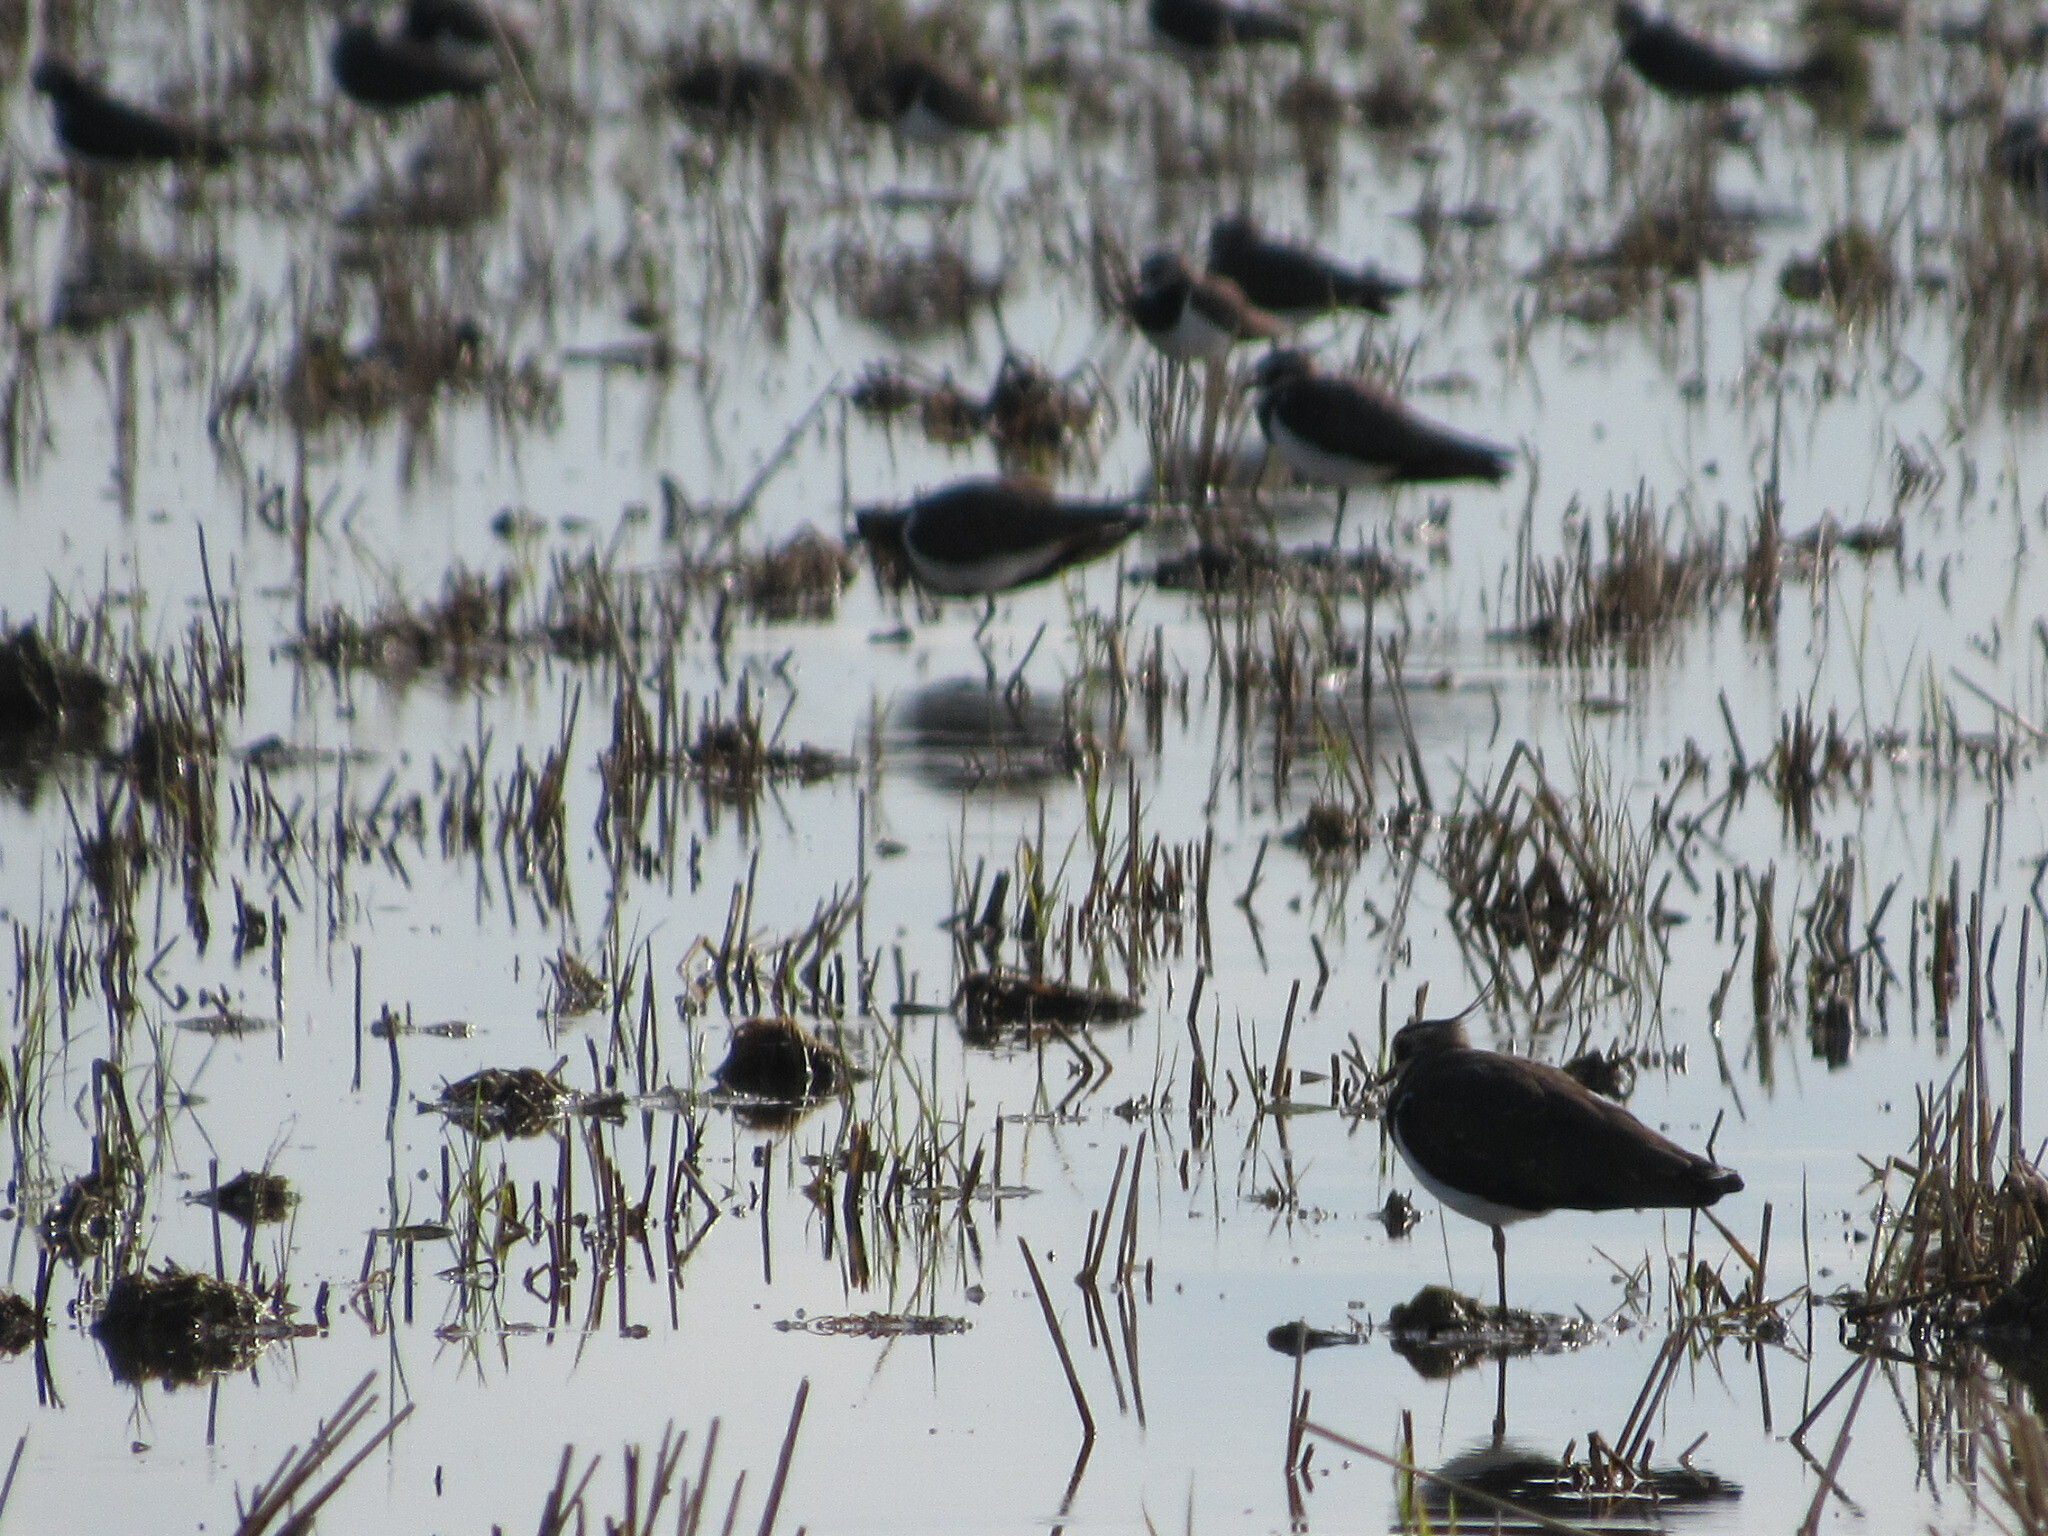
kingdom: Animalia
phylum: Chordata
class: Aves
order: Charadriiformes
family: Charadriidae
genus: Vanellus
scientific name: Vanellus vanellus
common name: Northern lapwing
